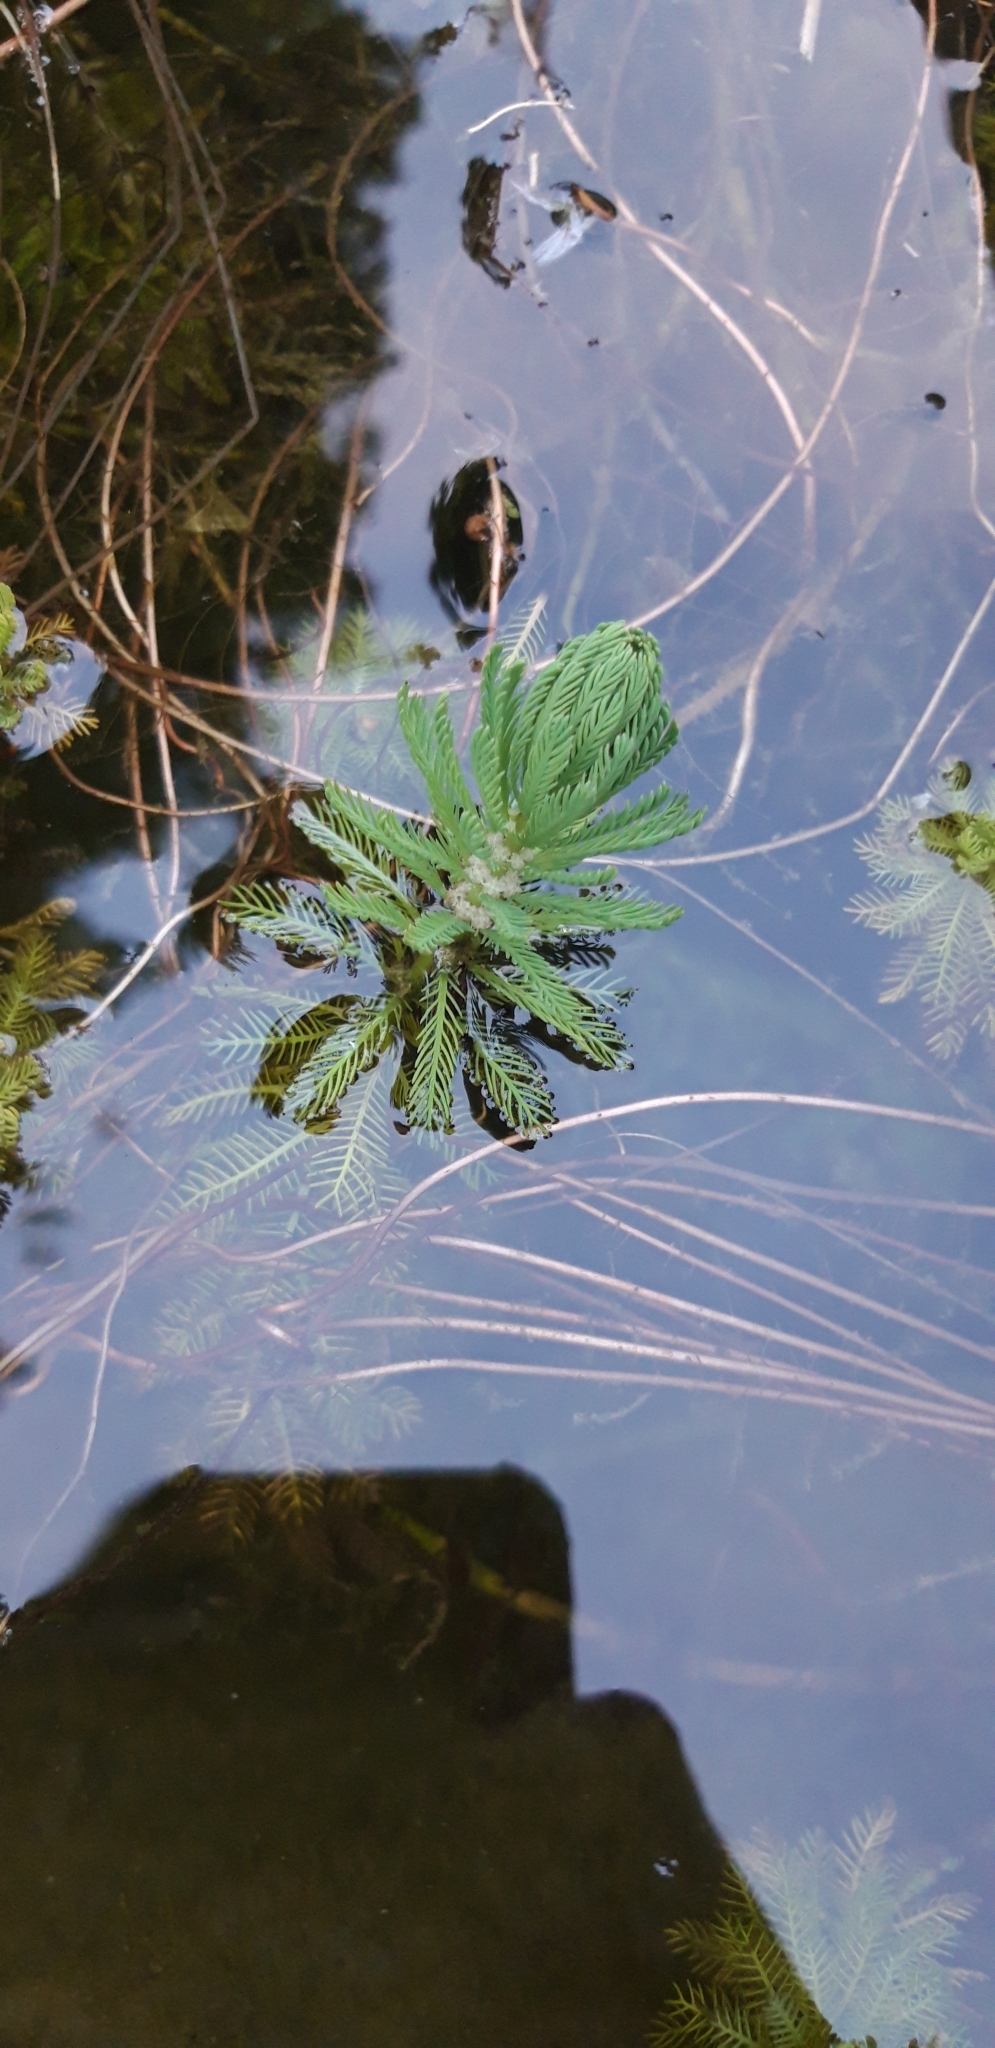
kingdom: Plantae
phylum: Tracheophyta
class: Magnoliopsida
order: Saxifragales
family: Haloragaceae
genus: Myriophyllum
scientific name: Myriophyllum aquaticum
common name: Parrot's feather
